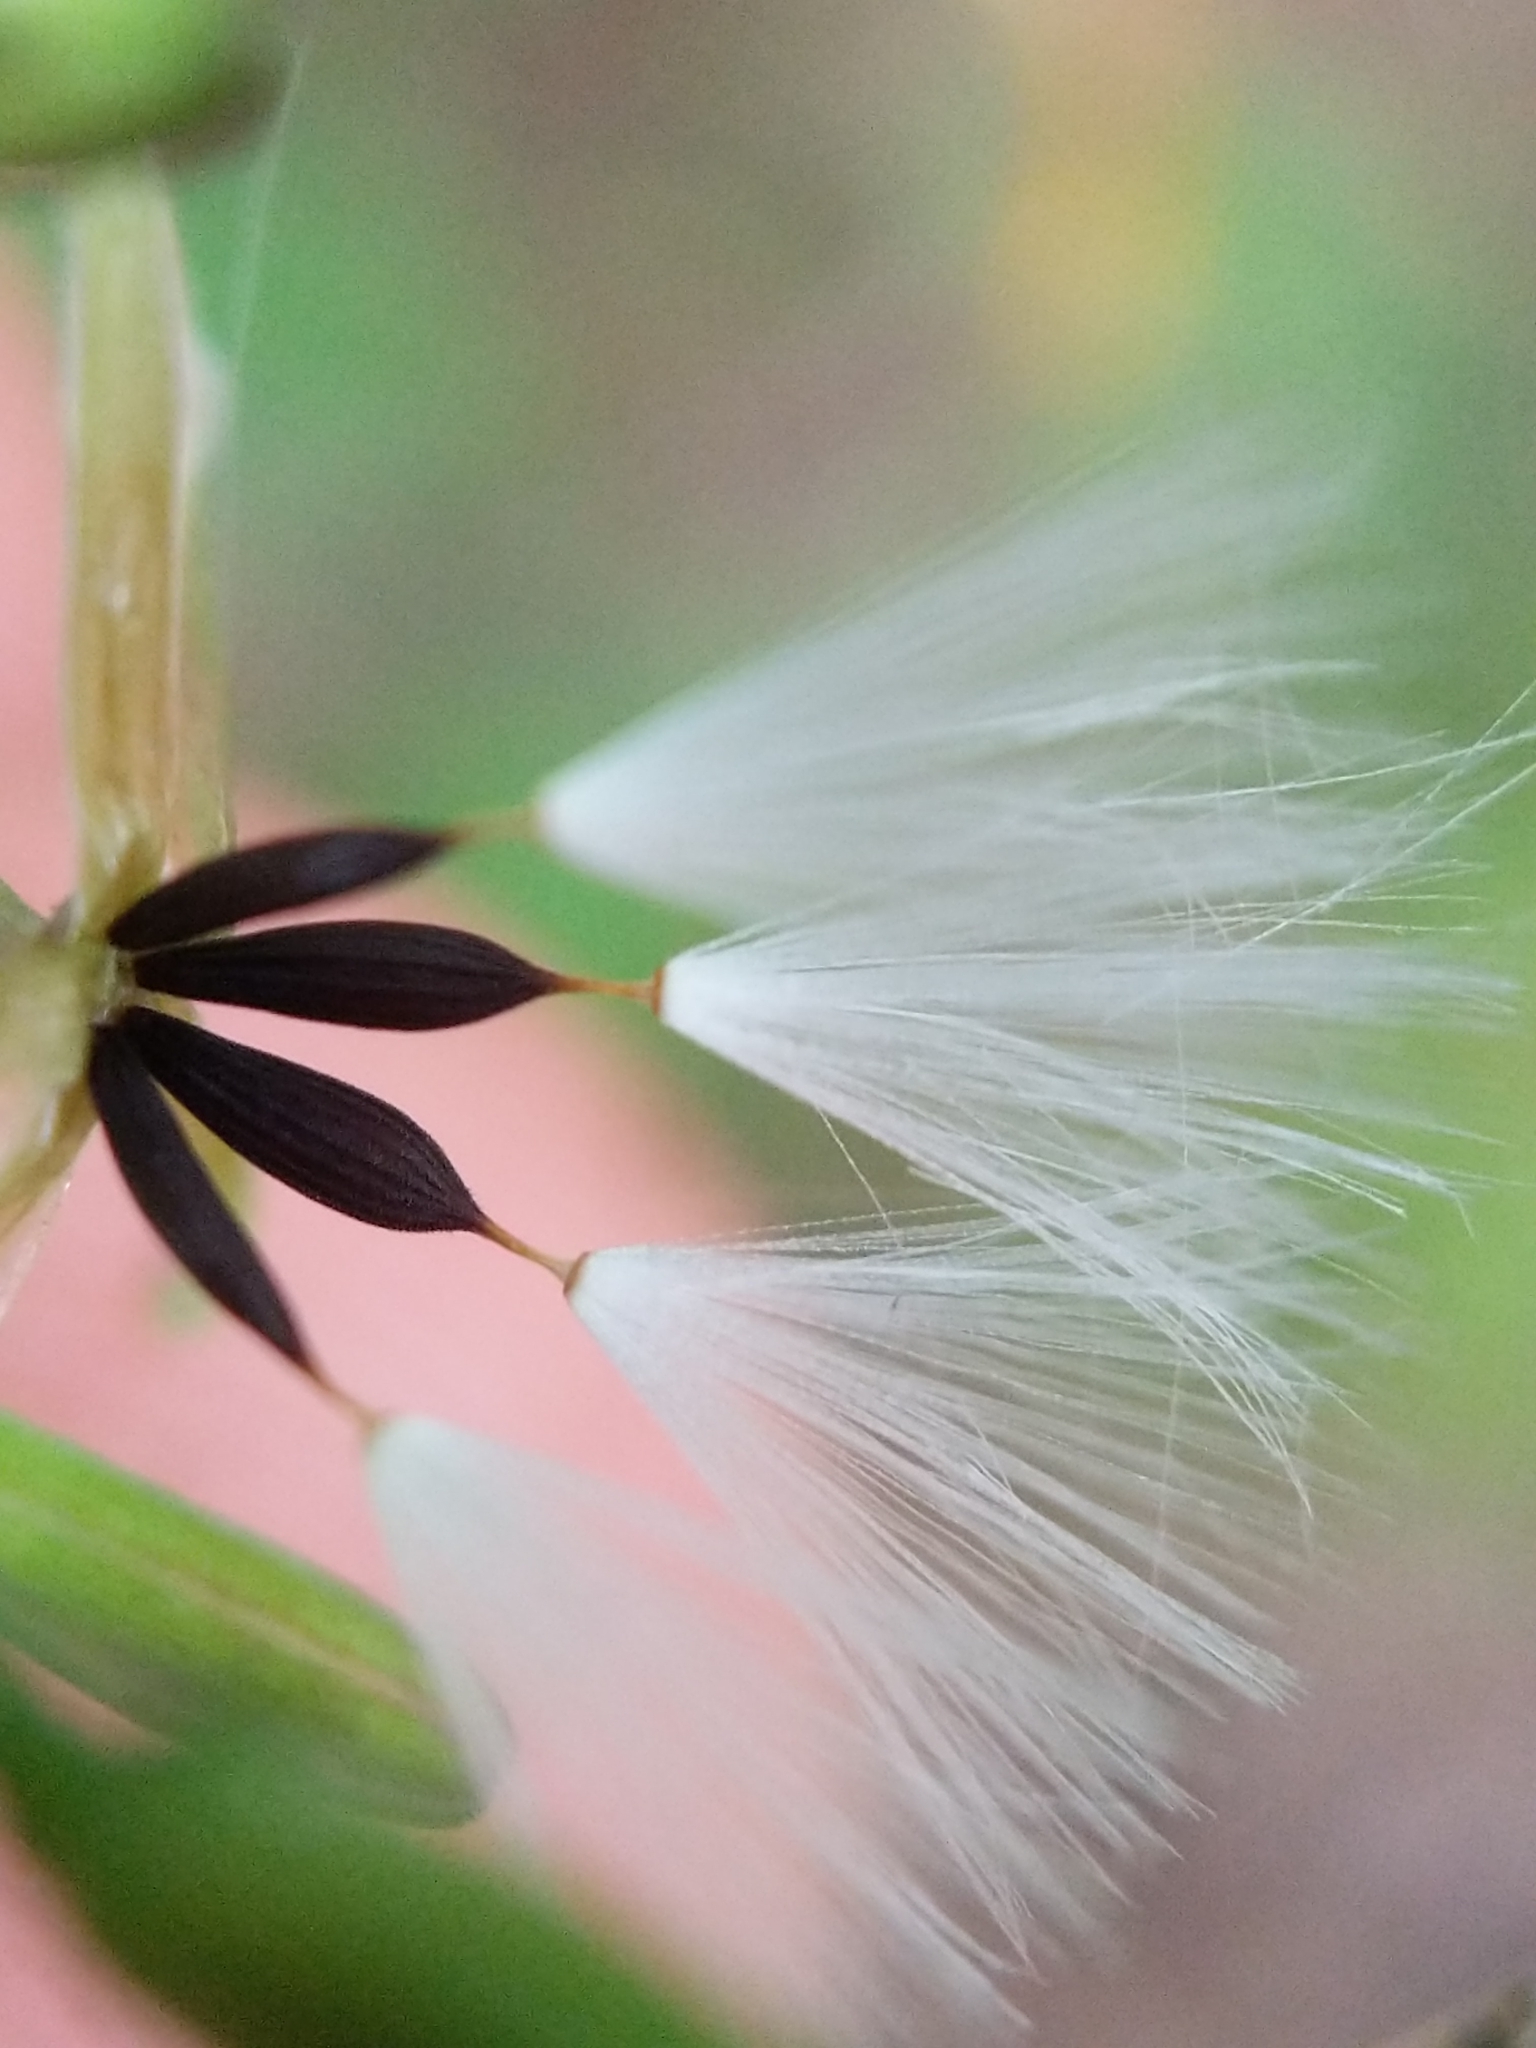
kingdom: Plantae
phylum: Tracheophyta
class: Magnoliopsida
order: Asterales
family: Asteraceae
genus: Mycelis
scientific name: Mycelis muralis
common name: Wall lettuce
